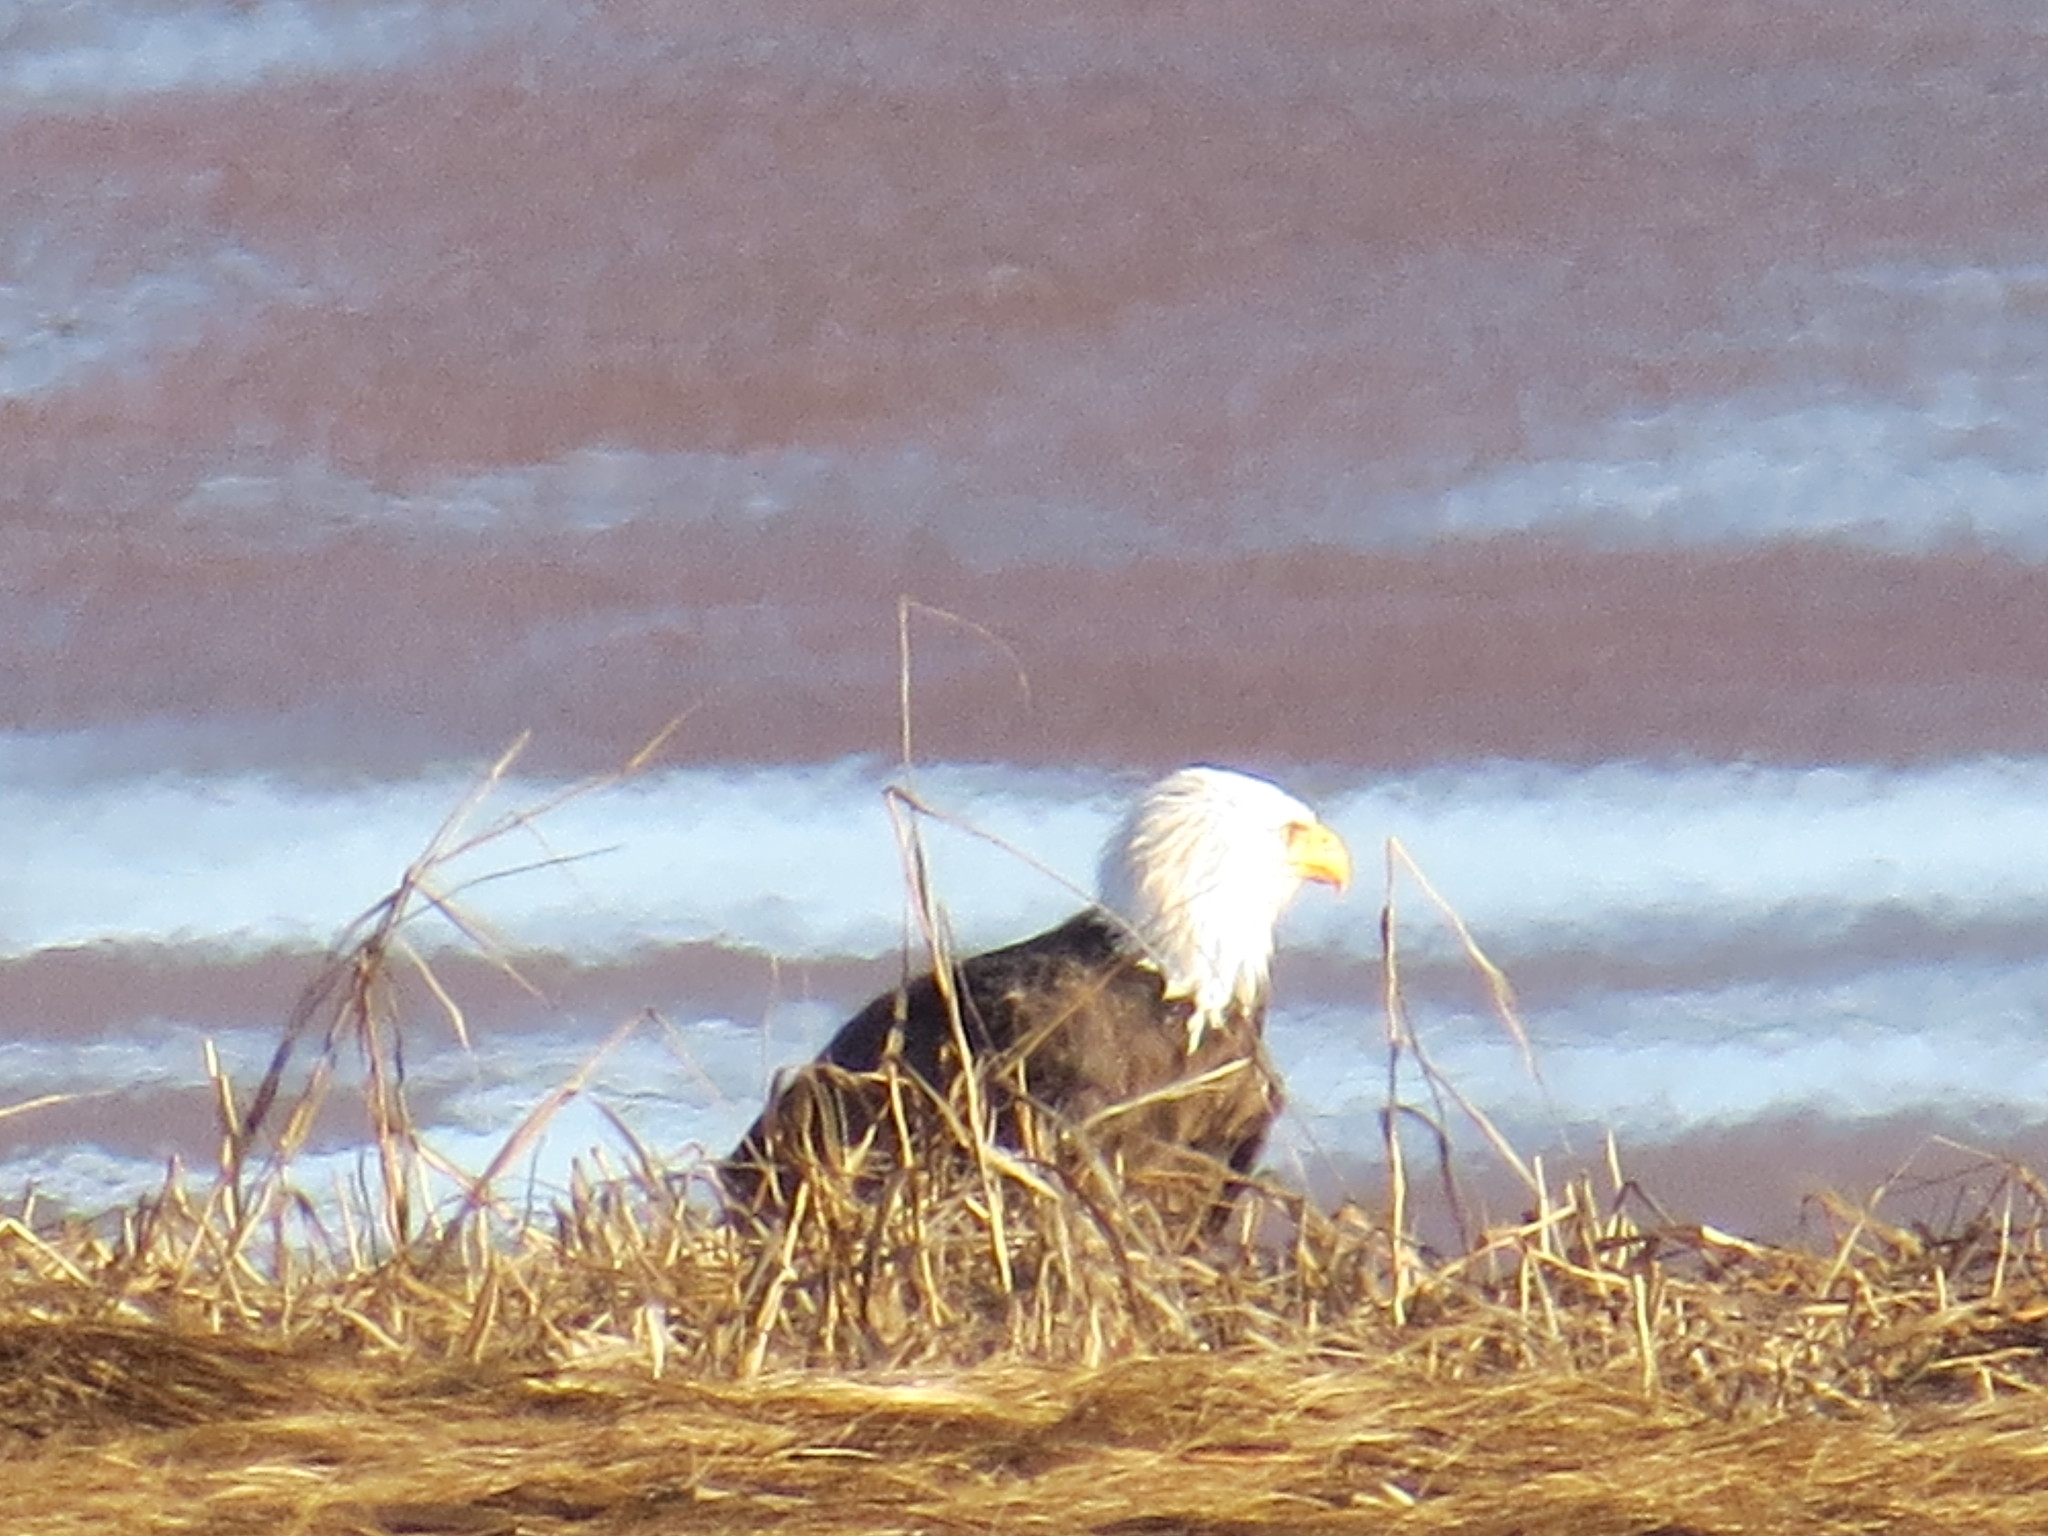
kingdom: Animalia
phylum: Chordata
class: Aves
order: Accipitriformes
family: Accipitridae
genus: Haliaeetus
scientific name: Haliaeetus leucocephalus
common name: Bald eagle
